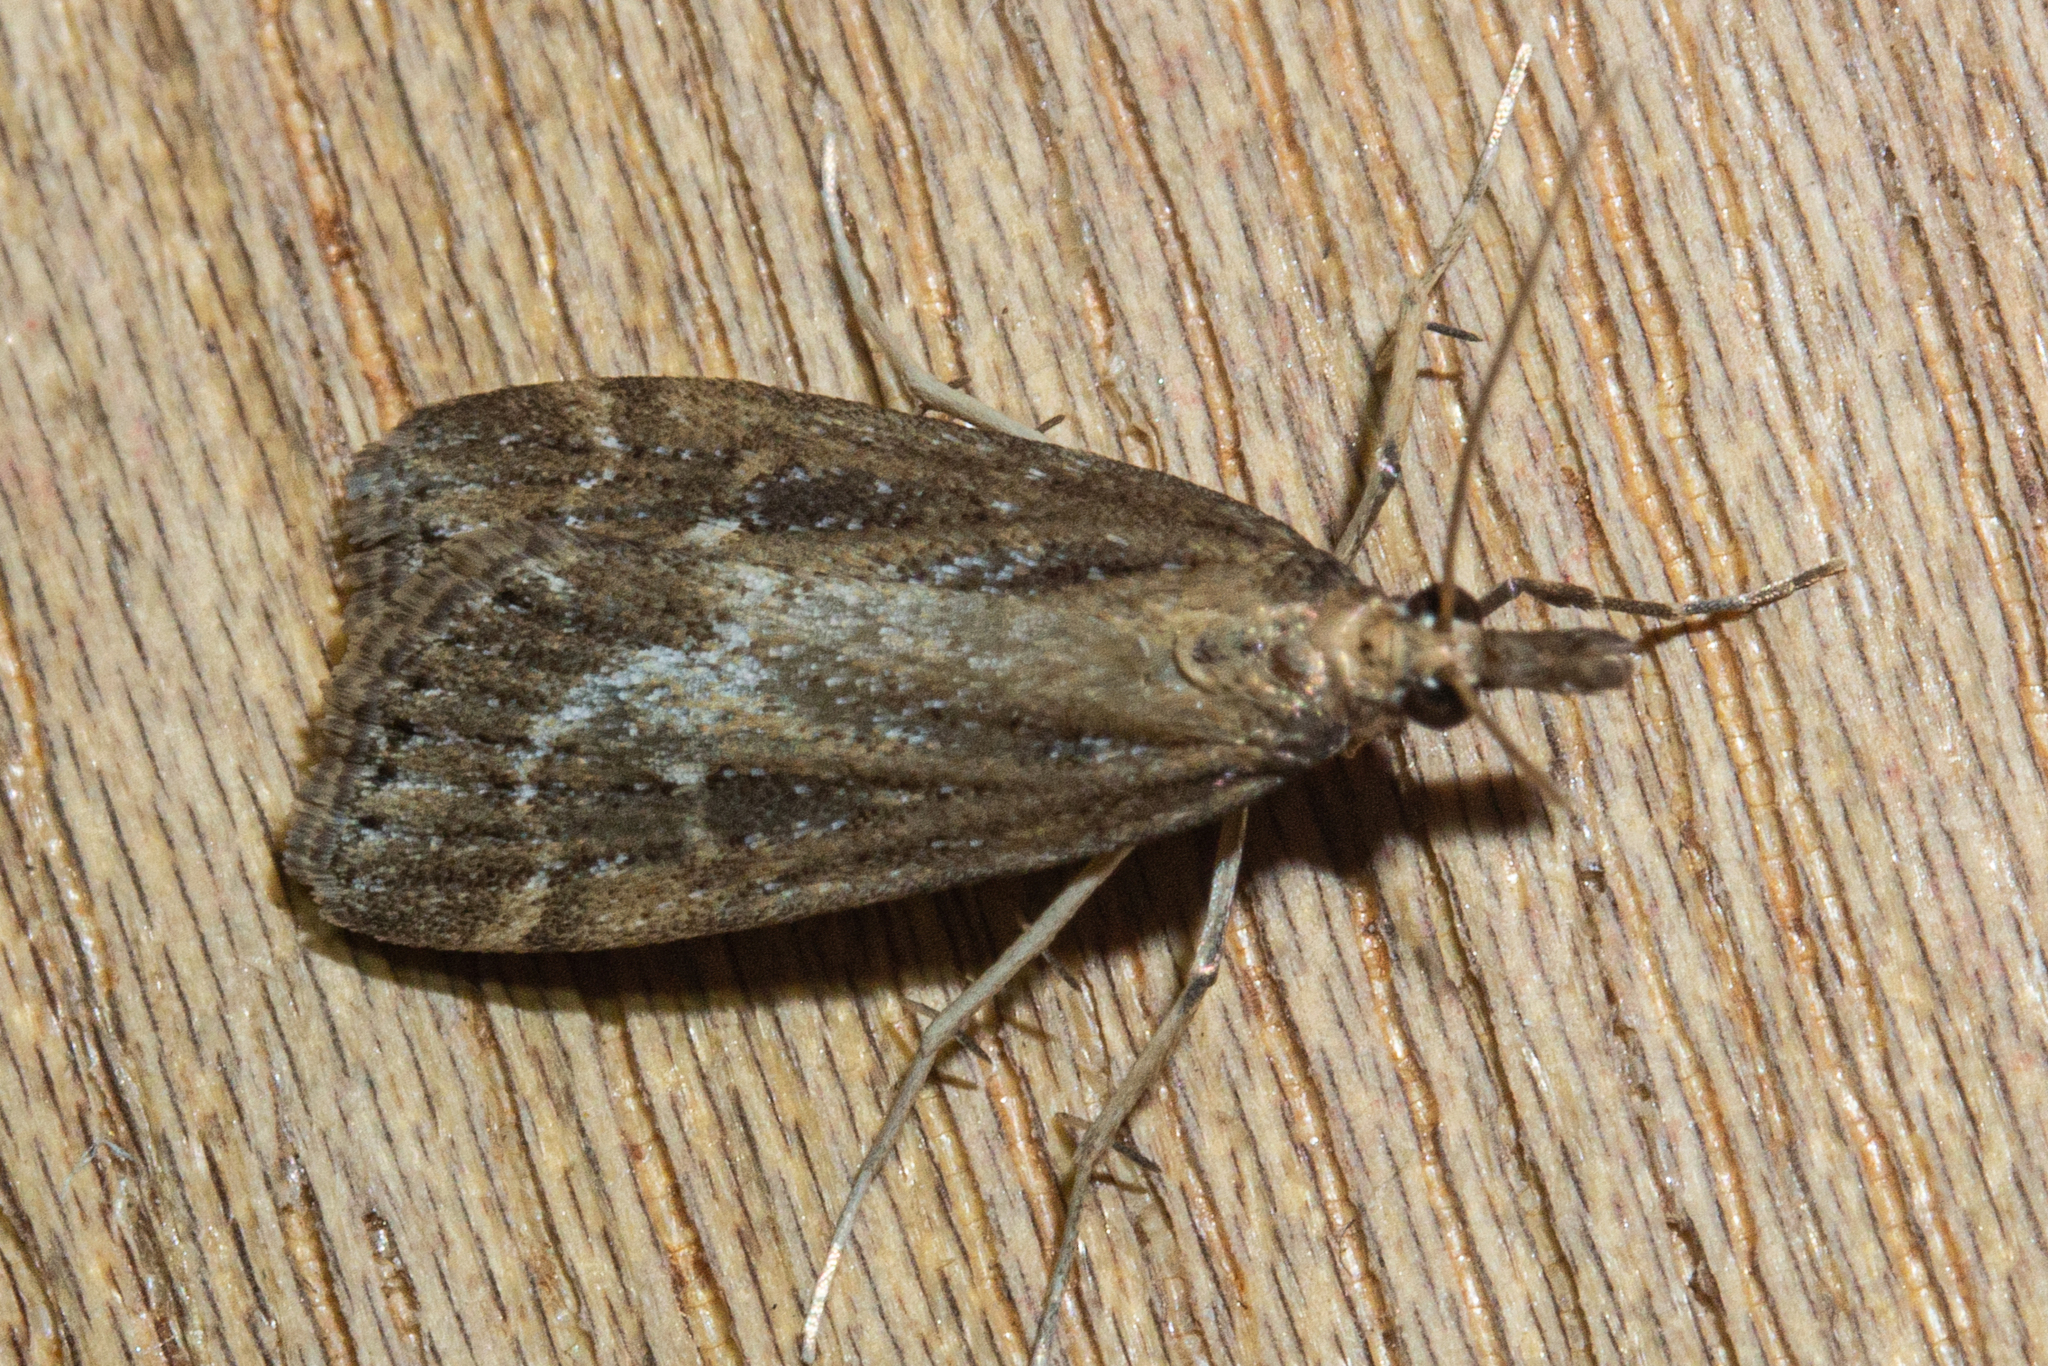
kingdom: Animalia
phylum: Arthropoda
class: Insecta
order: Lepidoptera
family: Crambidae
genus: Eudonia
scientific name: Eudonia octophora
